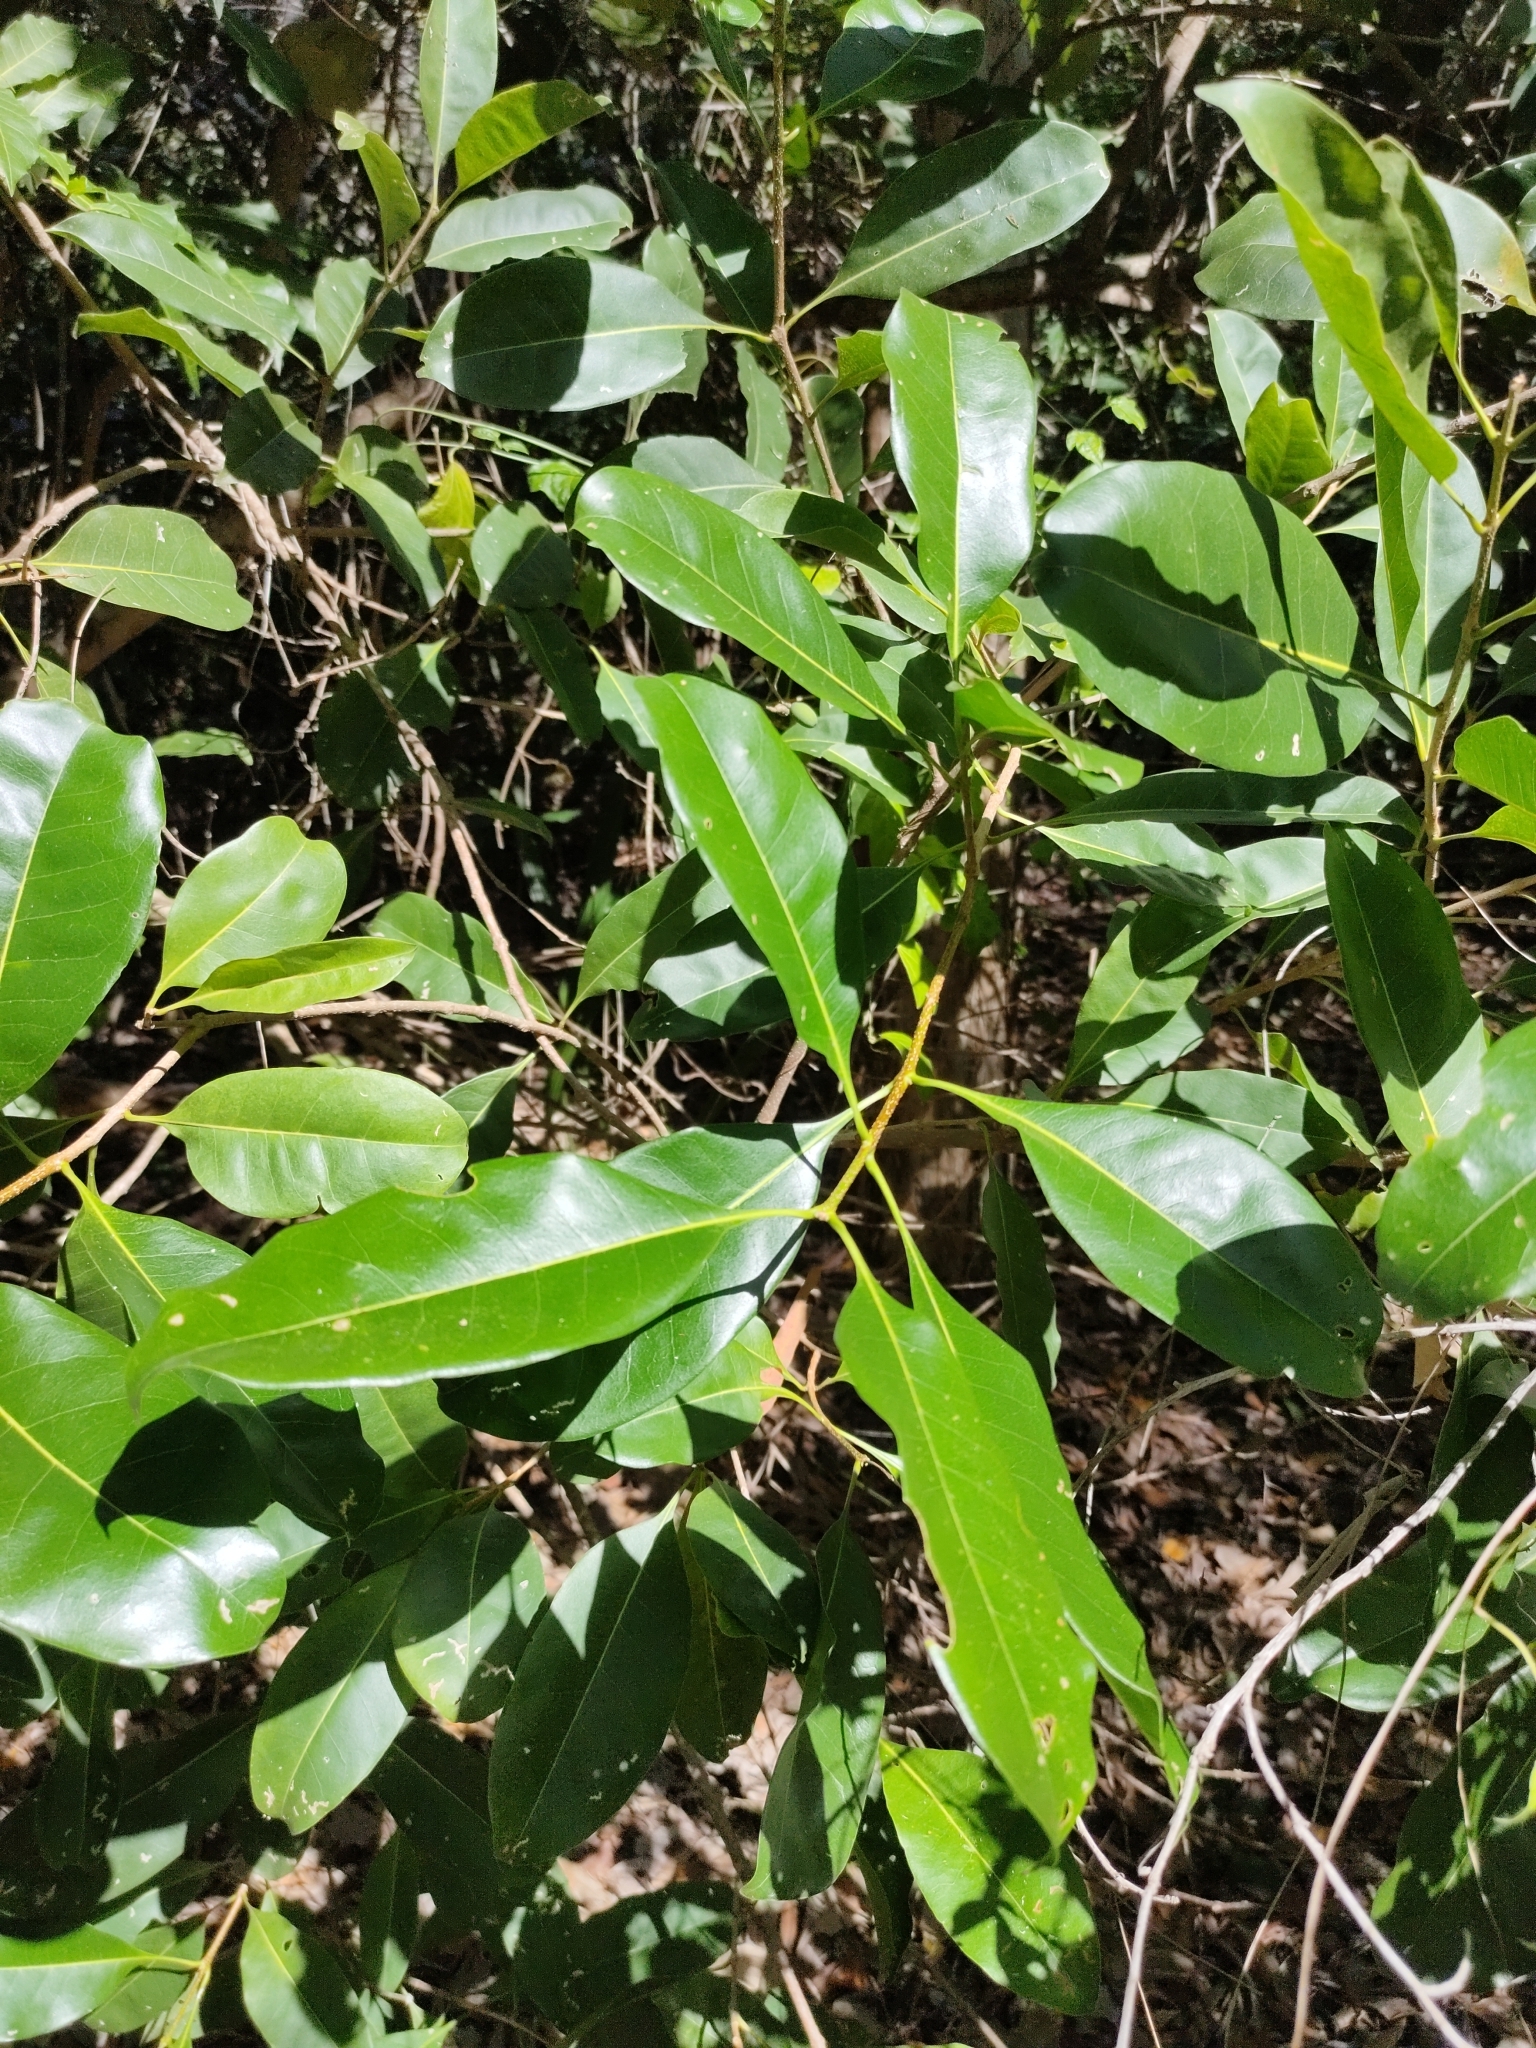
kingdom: Plantae
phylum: Tracheophyta
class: Magnoliopsida
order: Lamiales
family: Oleaceae
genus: Chionanthus
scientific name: Chionanthus ramiflorus
